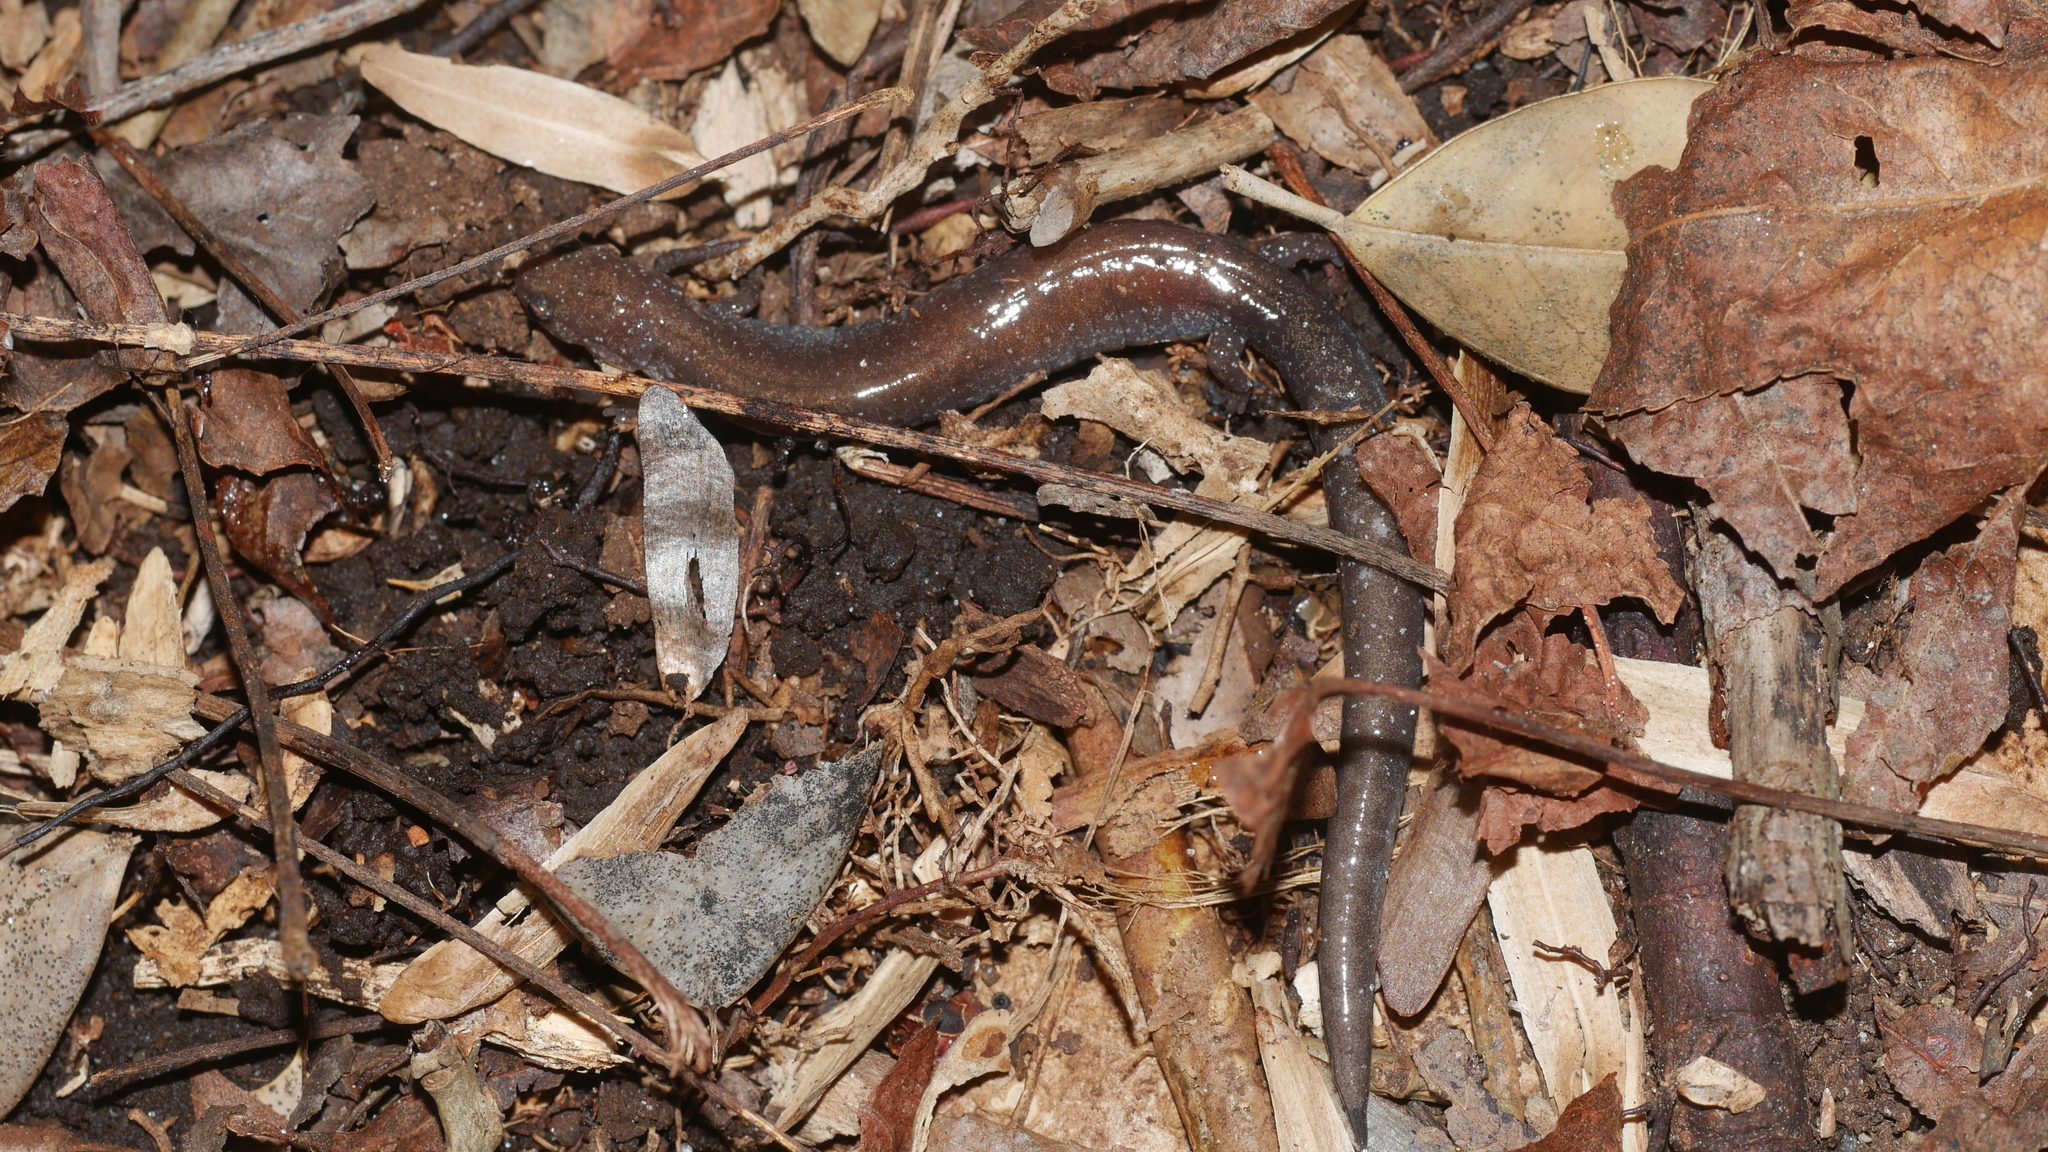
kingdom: Animalia
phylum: Chordata
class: Amphibia
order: Caudata
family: Plethodontidae
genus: Plethodon
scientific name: Plethodon cinereus
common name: Redback salamander
